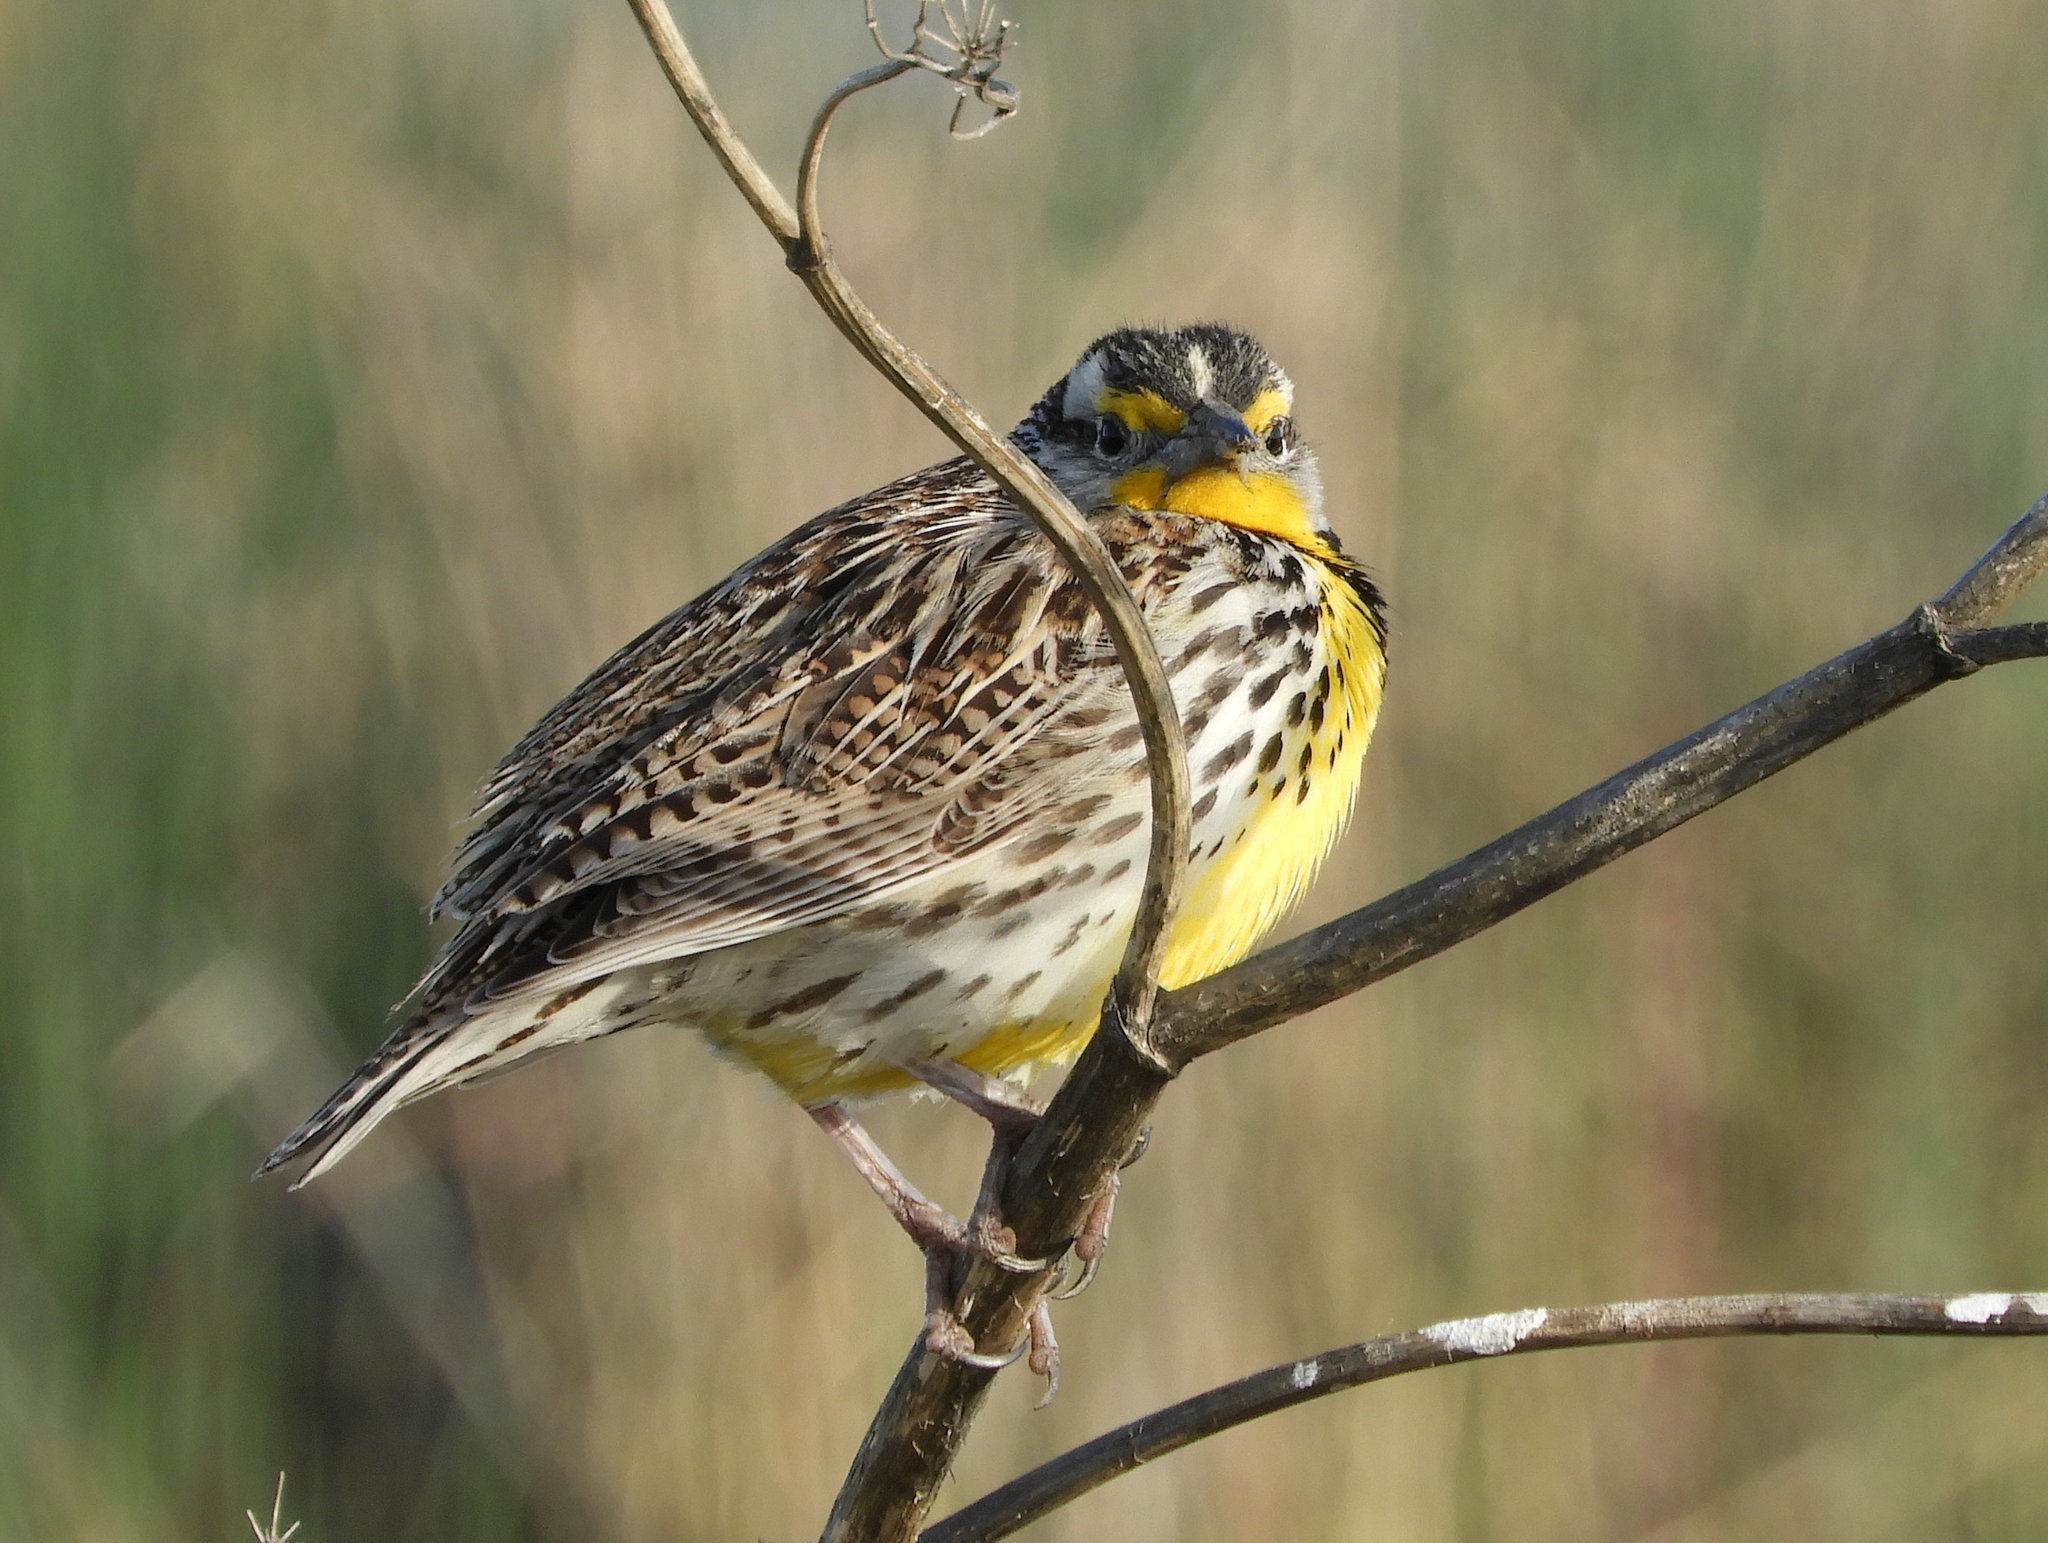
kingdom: Animalia
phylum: Chordata
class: Aves
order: Passeriformes
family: Icteridae
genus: Sturnella
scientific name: Sturnella neglecta
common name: Western meadowlark
